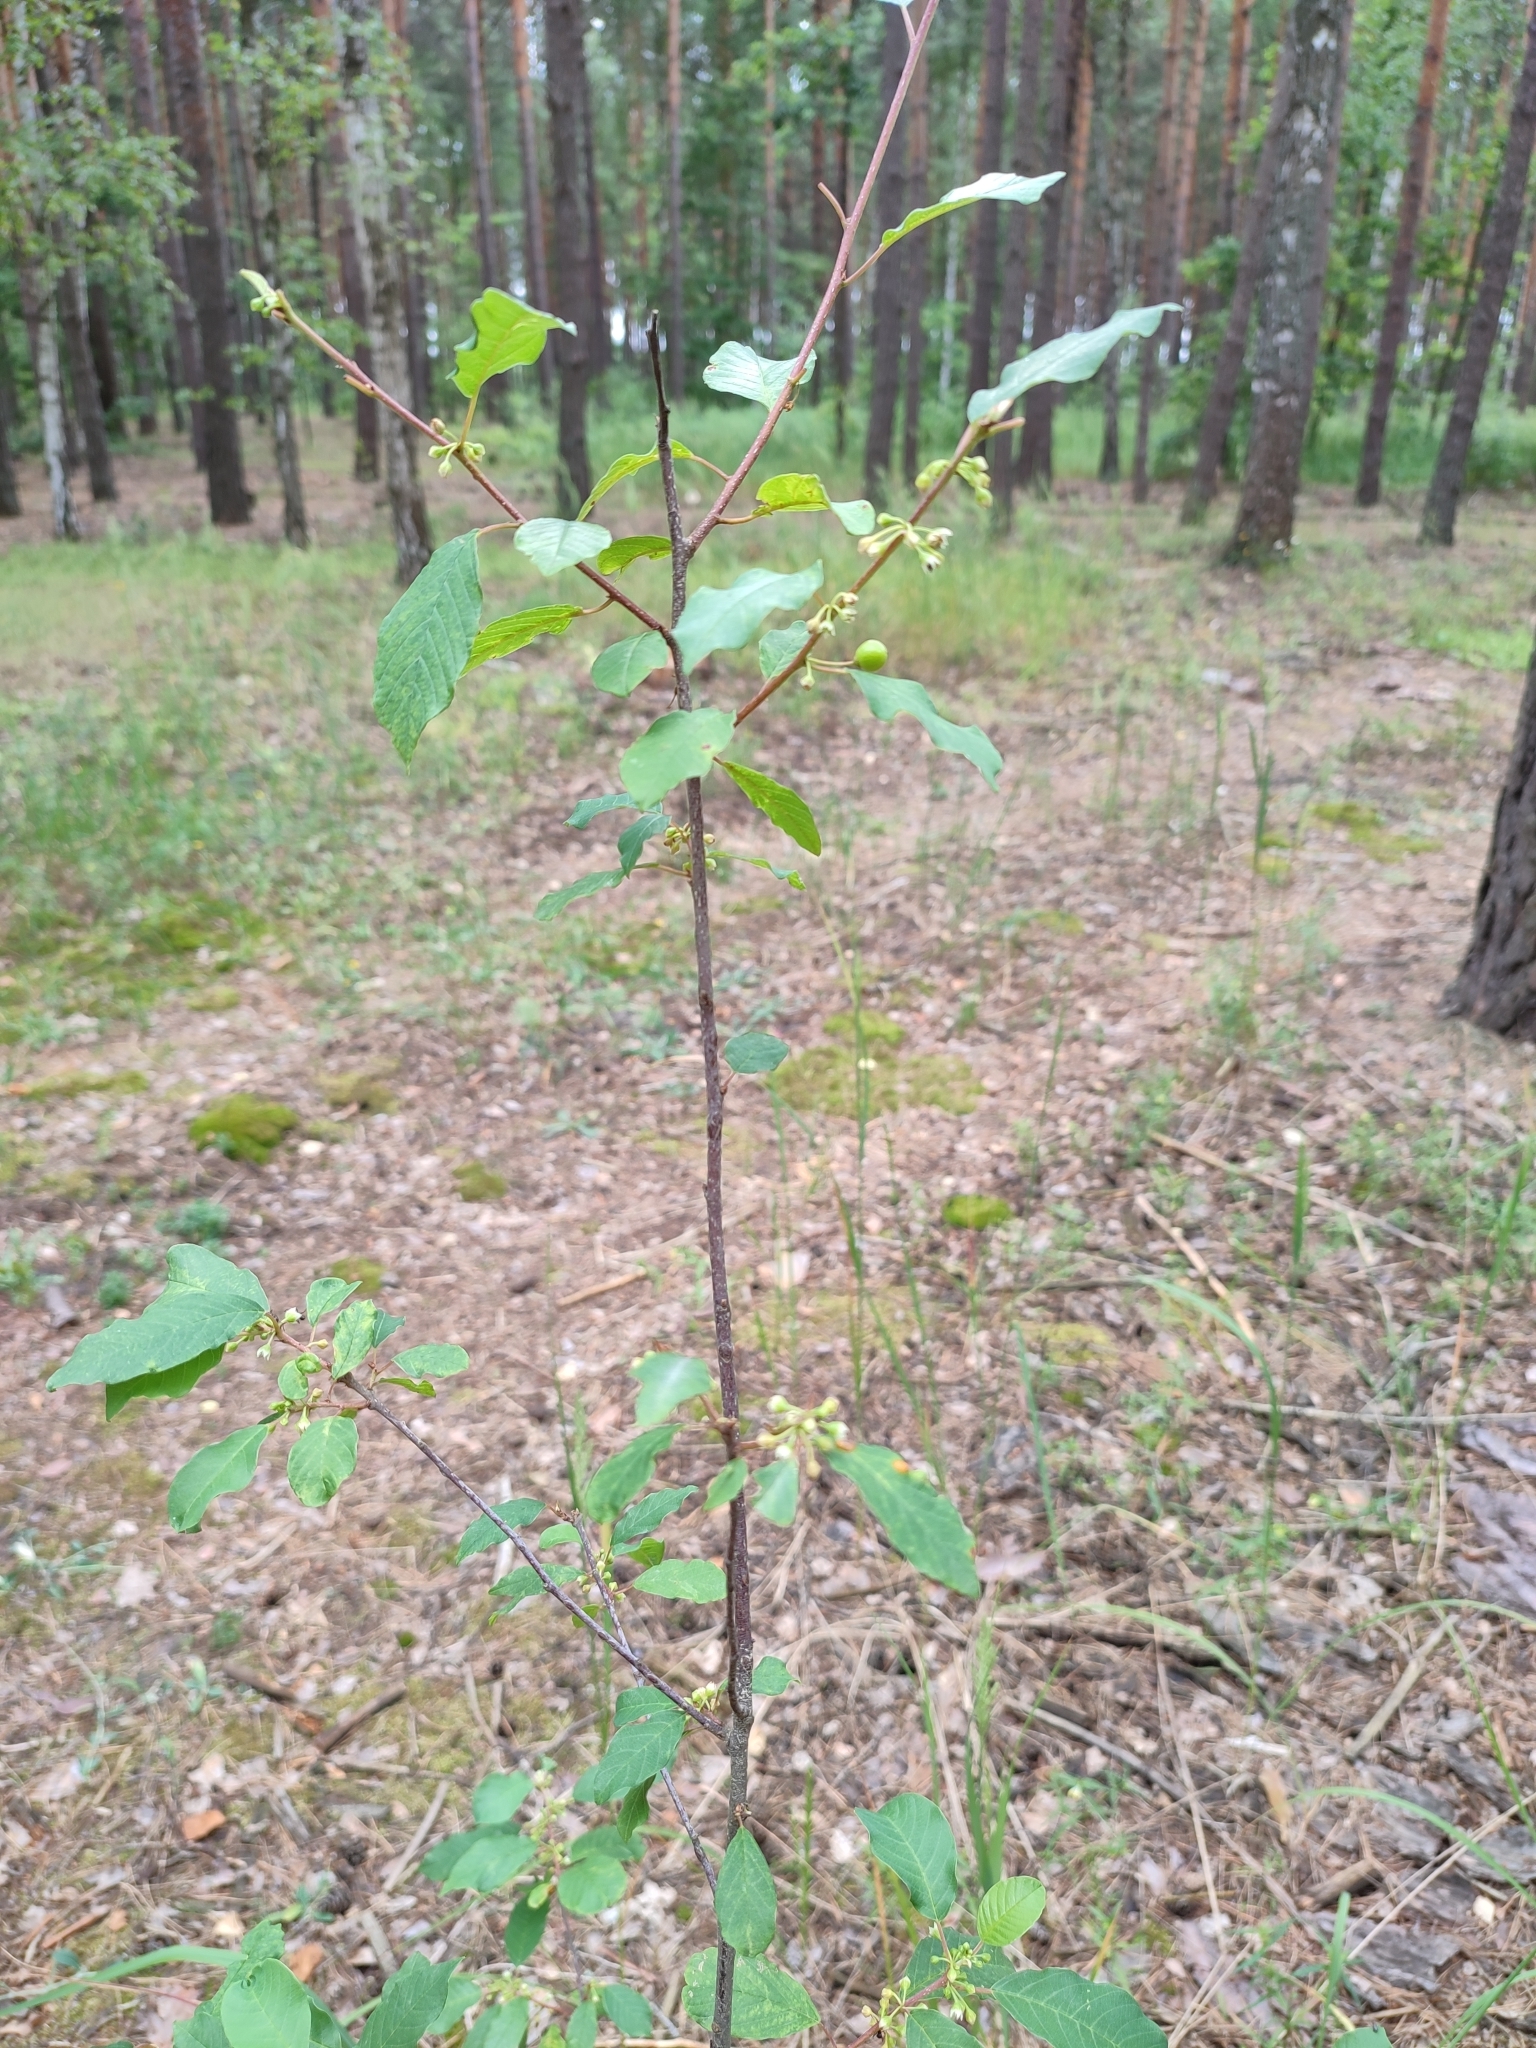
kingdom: Plantae
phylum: Tracheophyta
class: Magnoliopsida
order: Rosales
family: Rhamnaceae
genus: Frangula
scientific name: Frangula alnus
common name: Alder buckthorn
